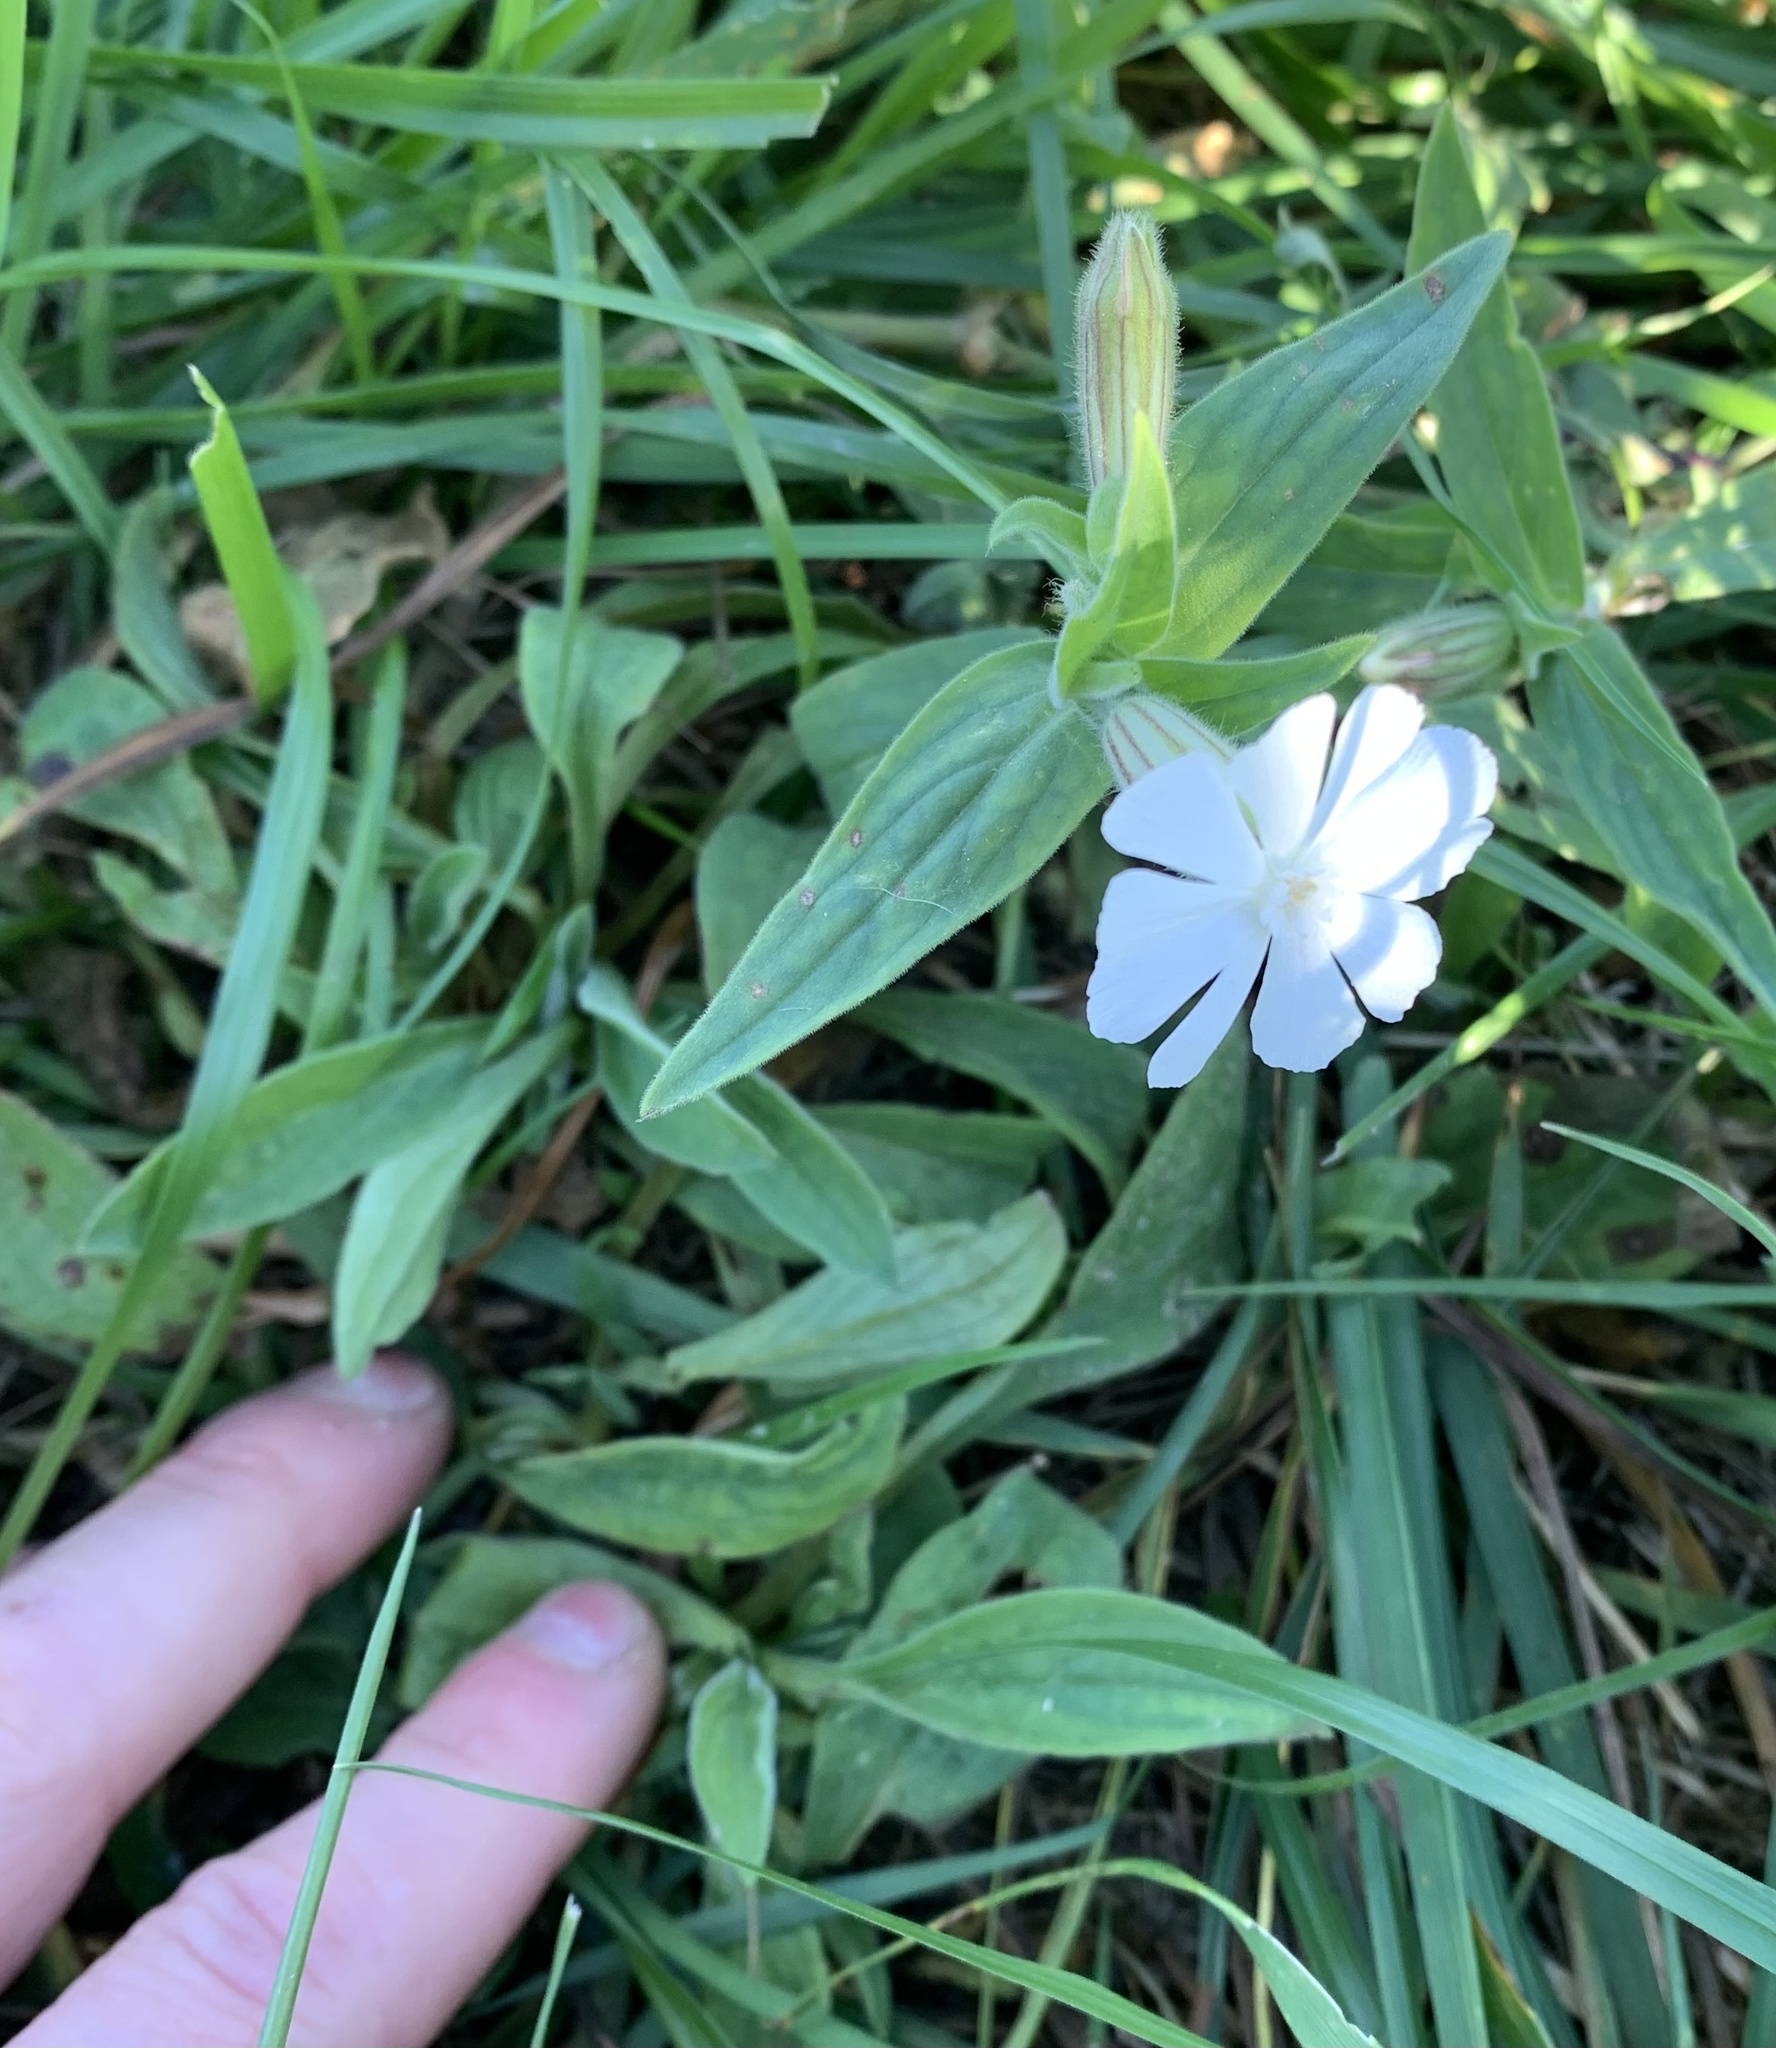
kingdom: Plantae
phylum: Tracheophyta
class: Magnoliopsida
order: Caryophyllales
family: Caryophyllaceae
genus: Silene
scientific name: Silene latifolia
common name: White campion
